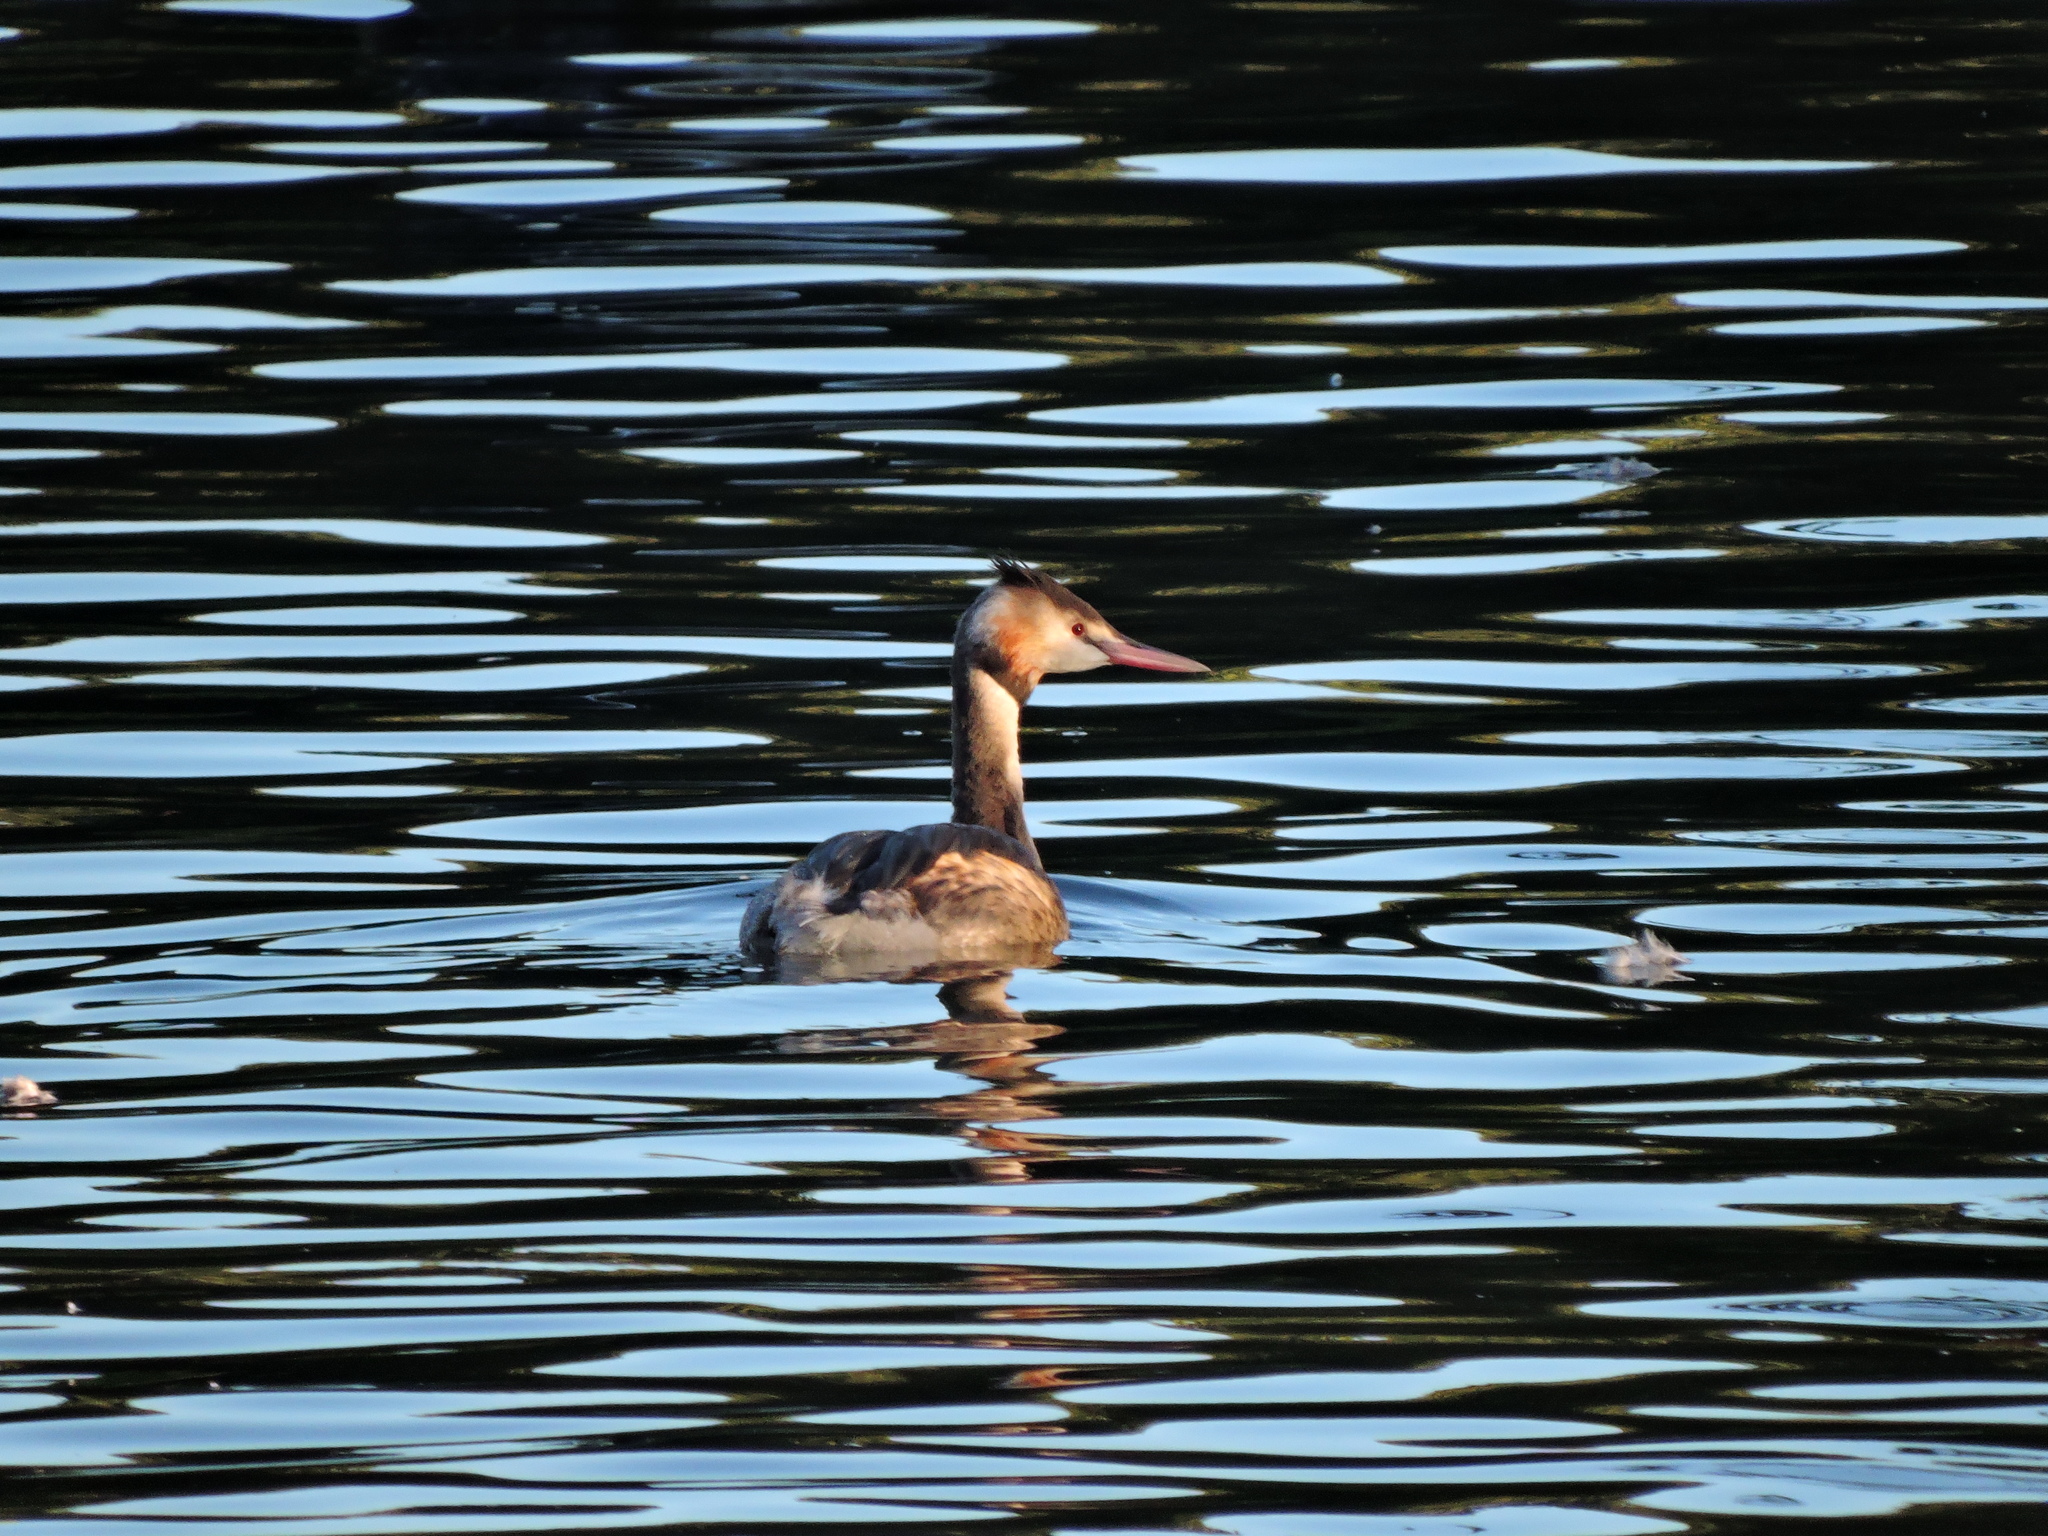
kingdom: Animalia
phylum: Chordata
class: Aves
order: Podicipediformes
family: Podicipedidae
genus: Podiceps
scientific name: Podiceps cristatus
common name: Great crested grebe
